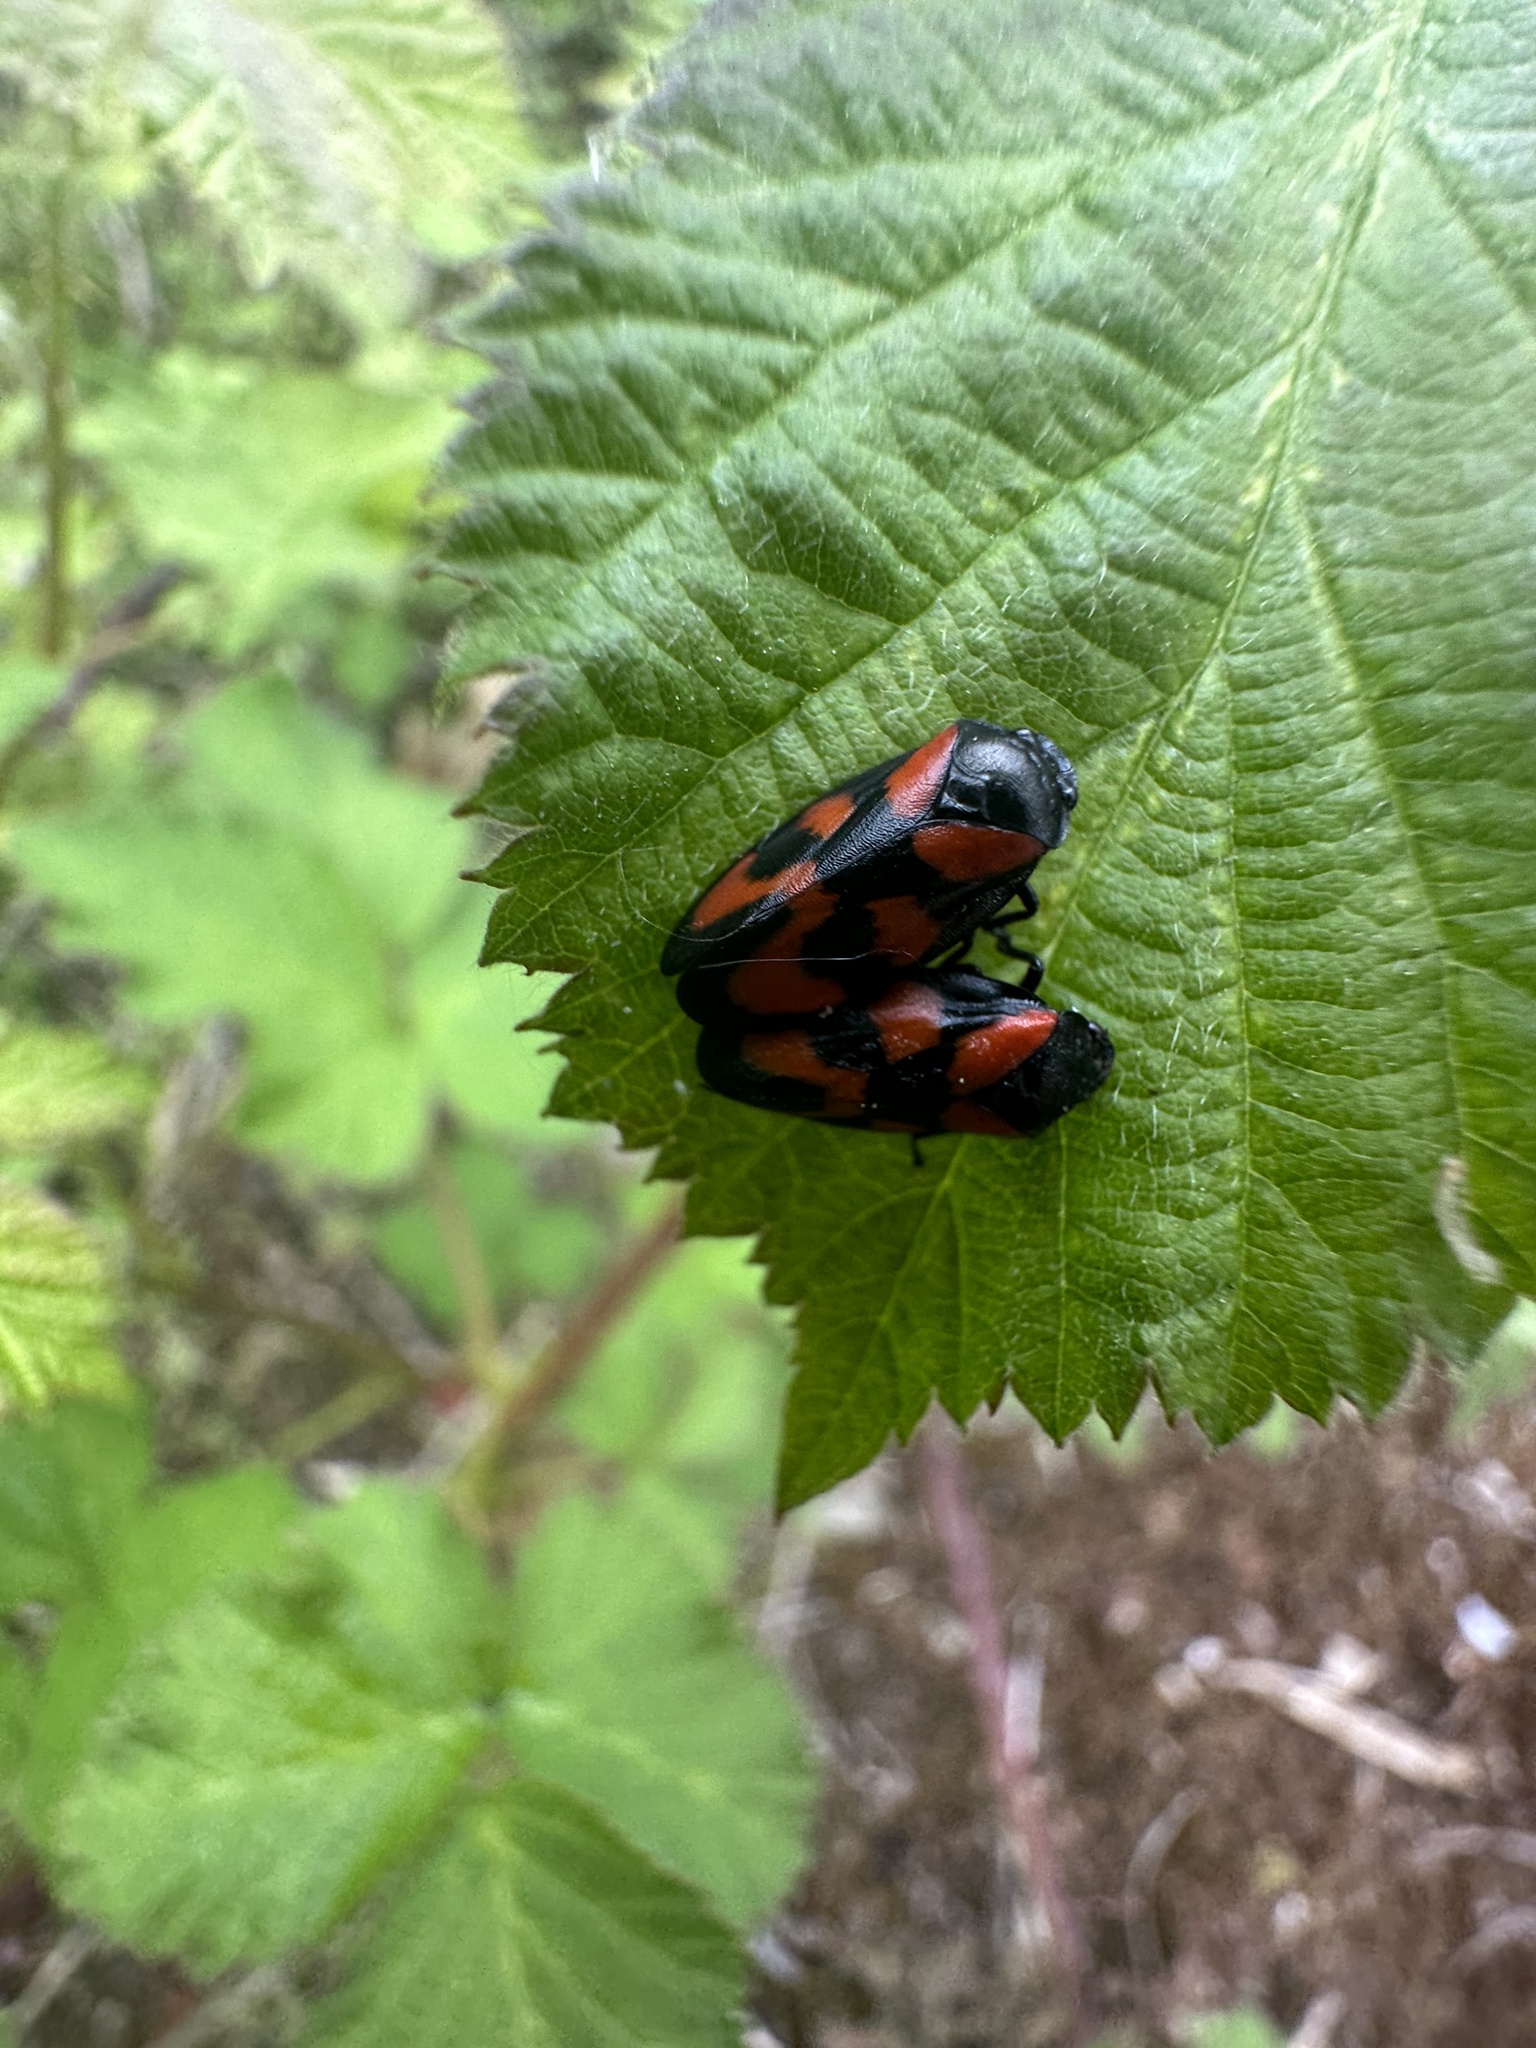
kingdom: Animalia
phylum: Arthropoda
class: Insecta
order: Hemiptera
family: Cercopidae
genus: Cercopis
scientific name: Cercopis vulnerata
